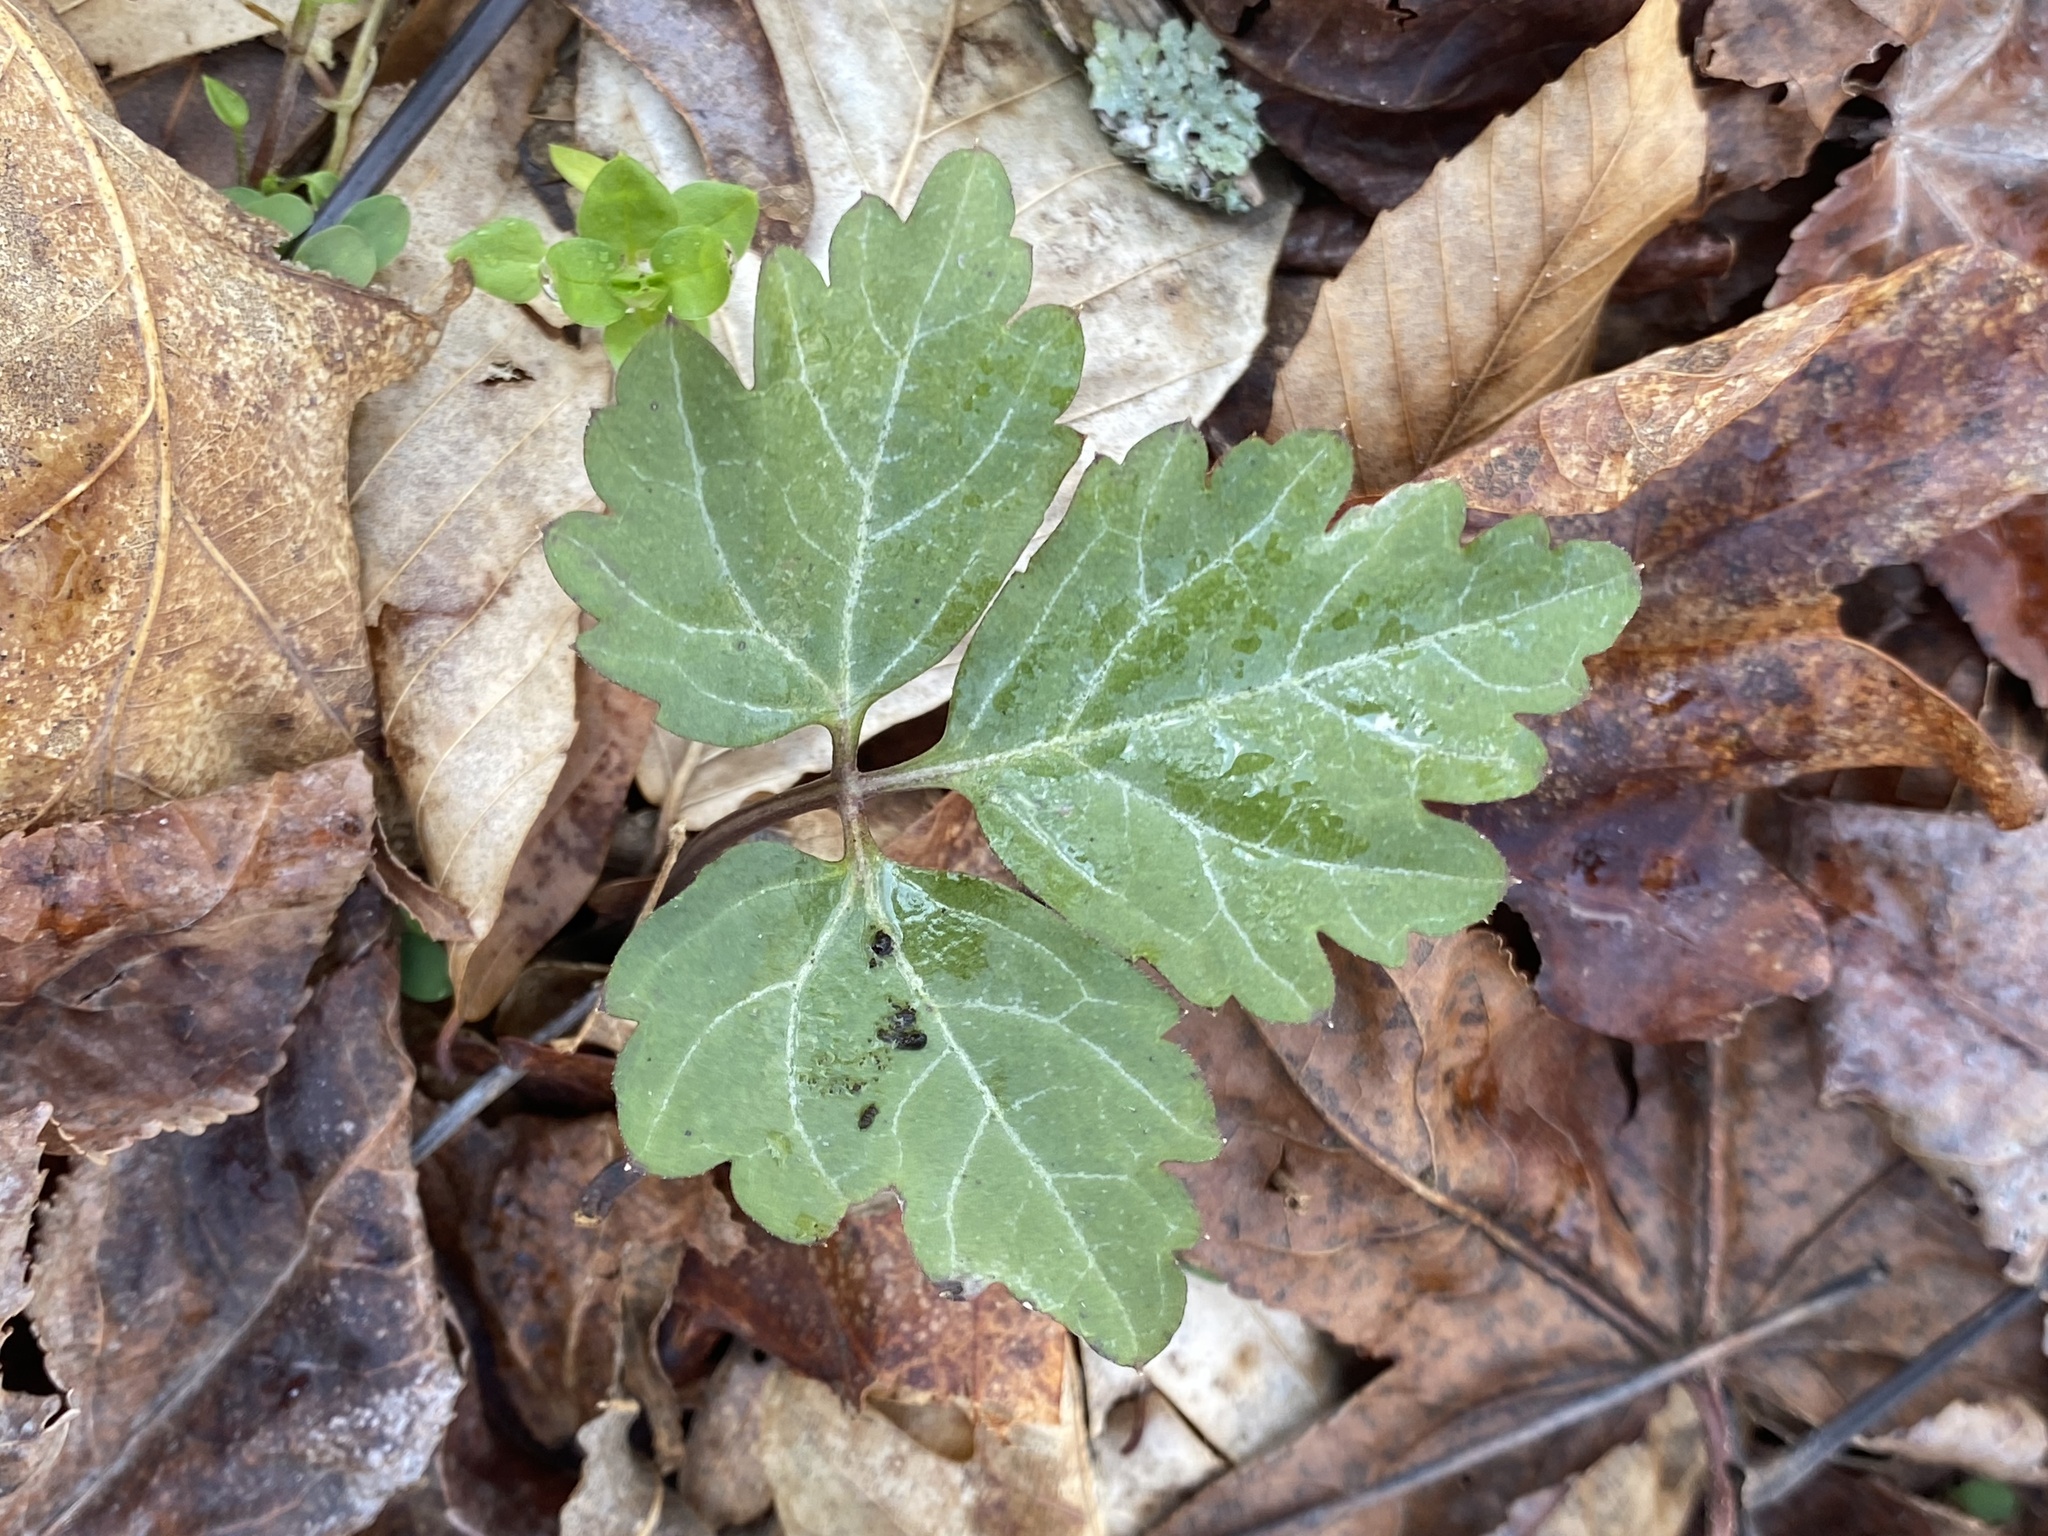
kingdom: Plantae
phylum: Tracheophyta
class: Magnoliopsida
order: Brassicales
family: Brassicaceae
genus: Cardamine
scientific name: Cardamine diphylla
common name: Broad-leaved toothwort
